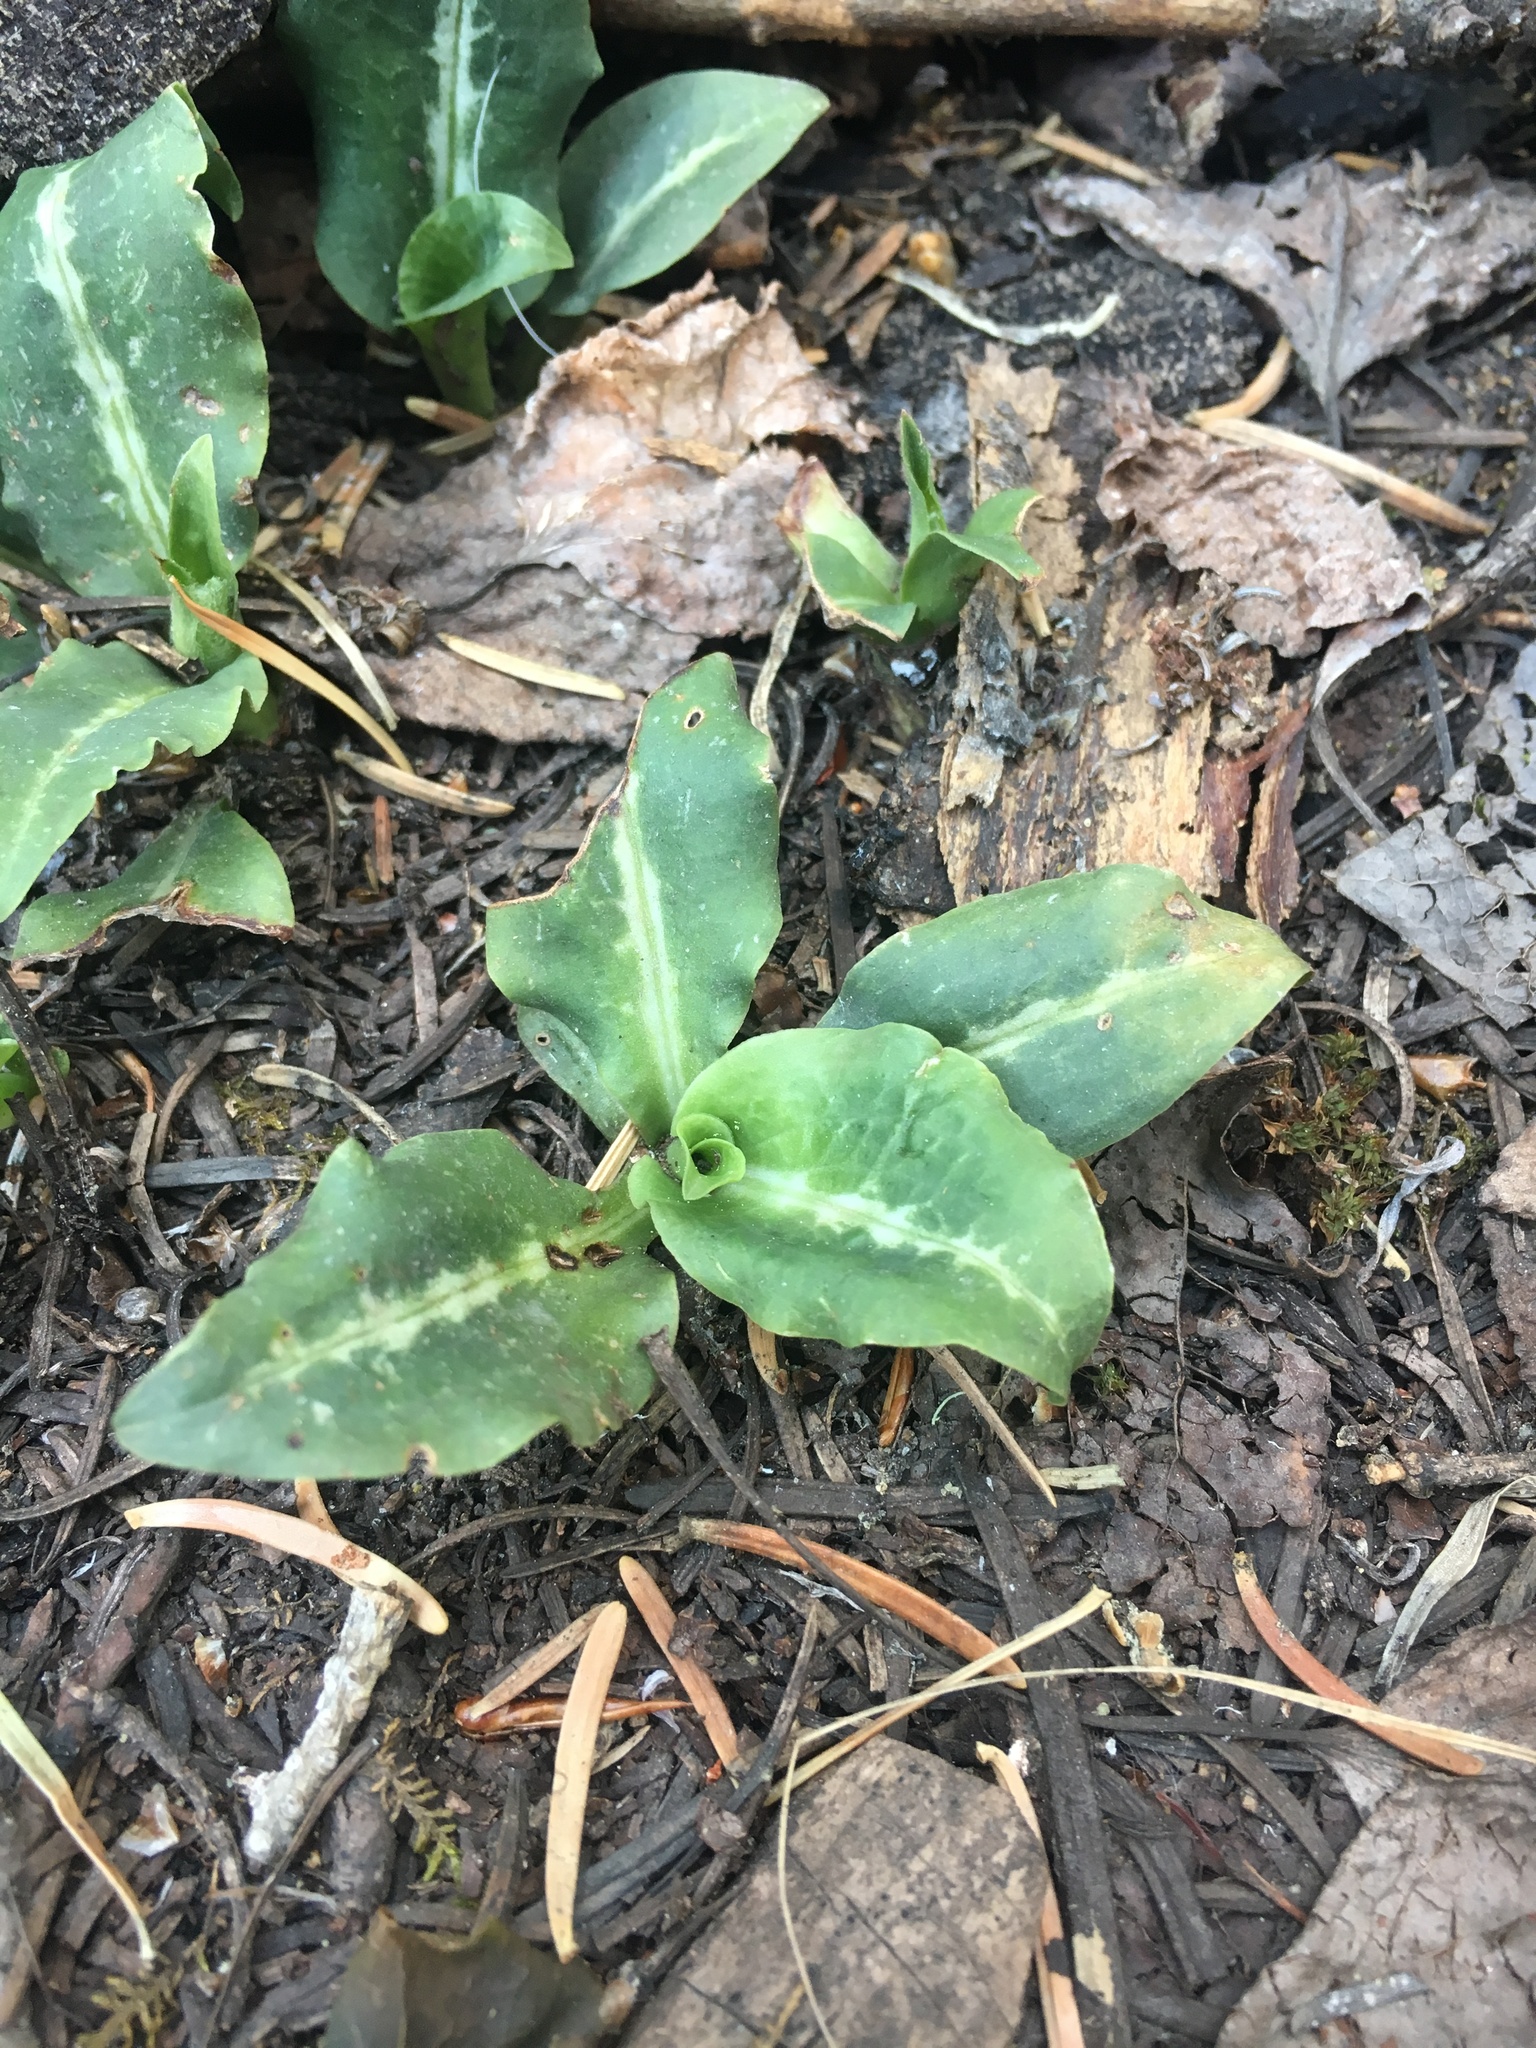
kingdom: Plantae
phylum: Tracheophyta
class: Liliopsida
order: Asparagales
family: Orchidaceae
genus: Goodyera
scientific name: Goodyera oblongifolia
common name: Giant rattlesnake-plantain
